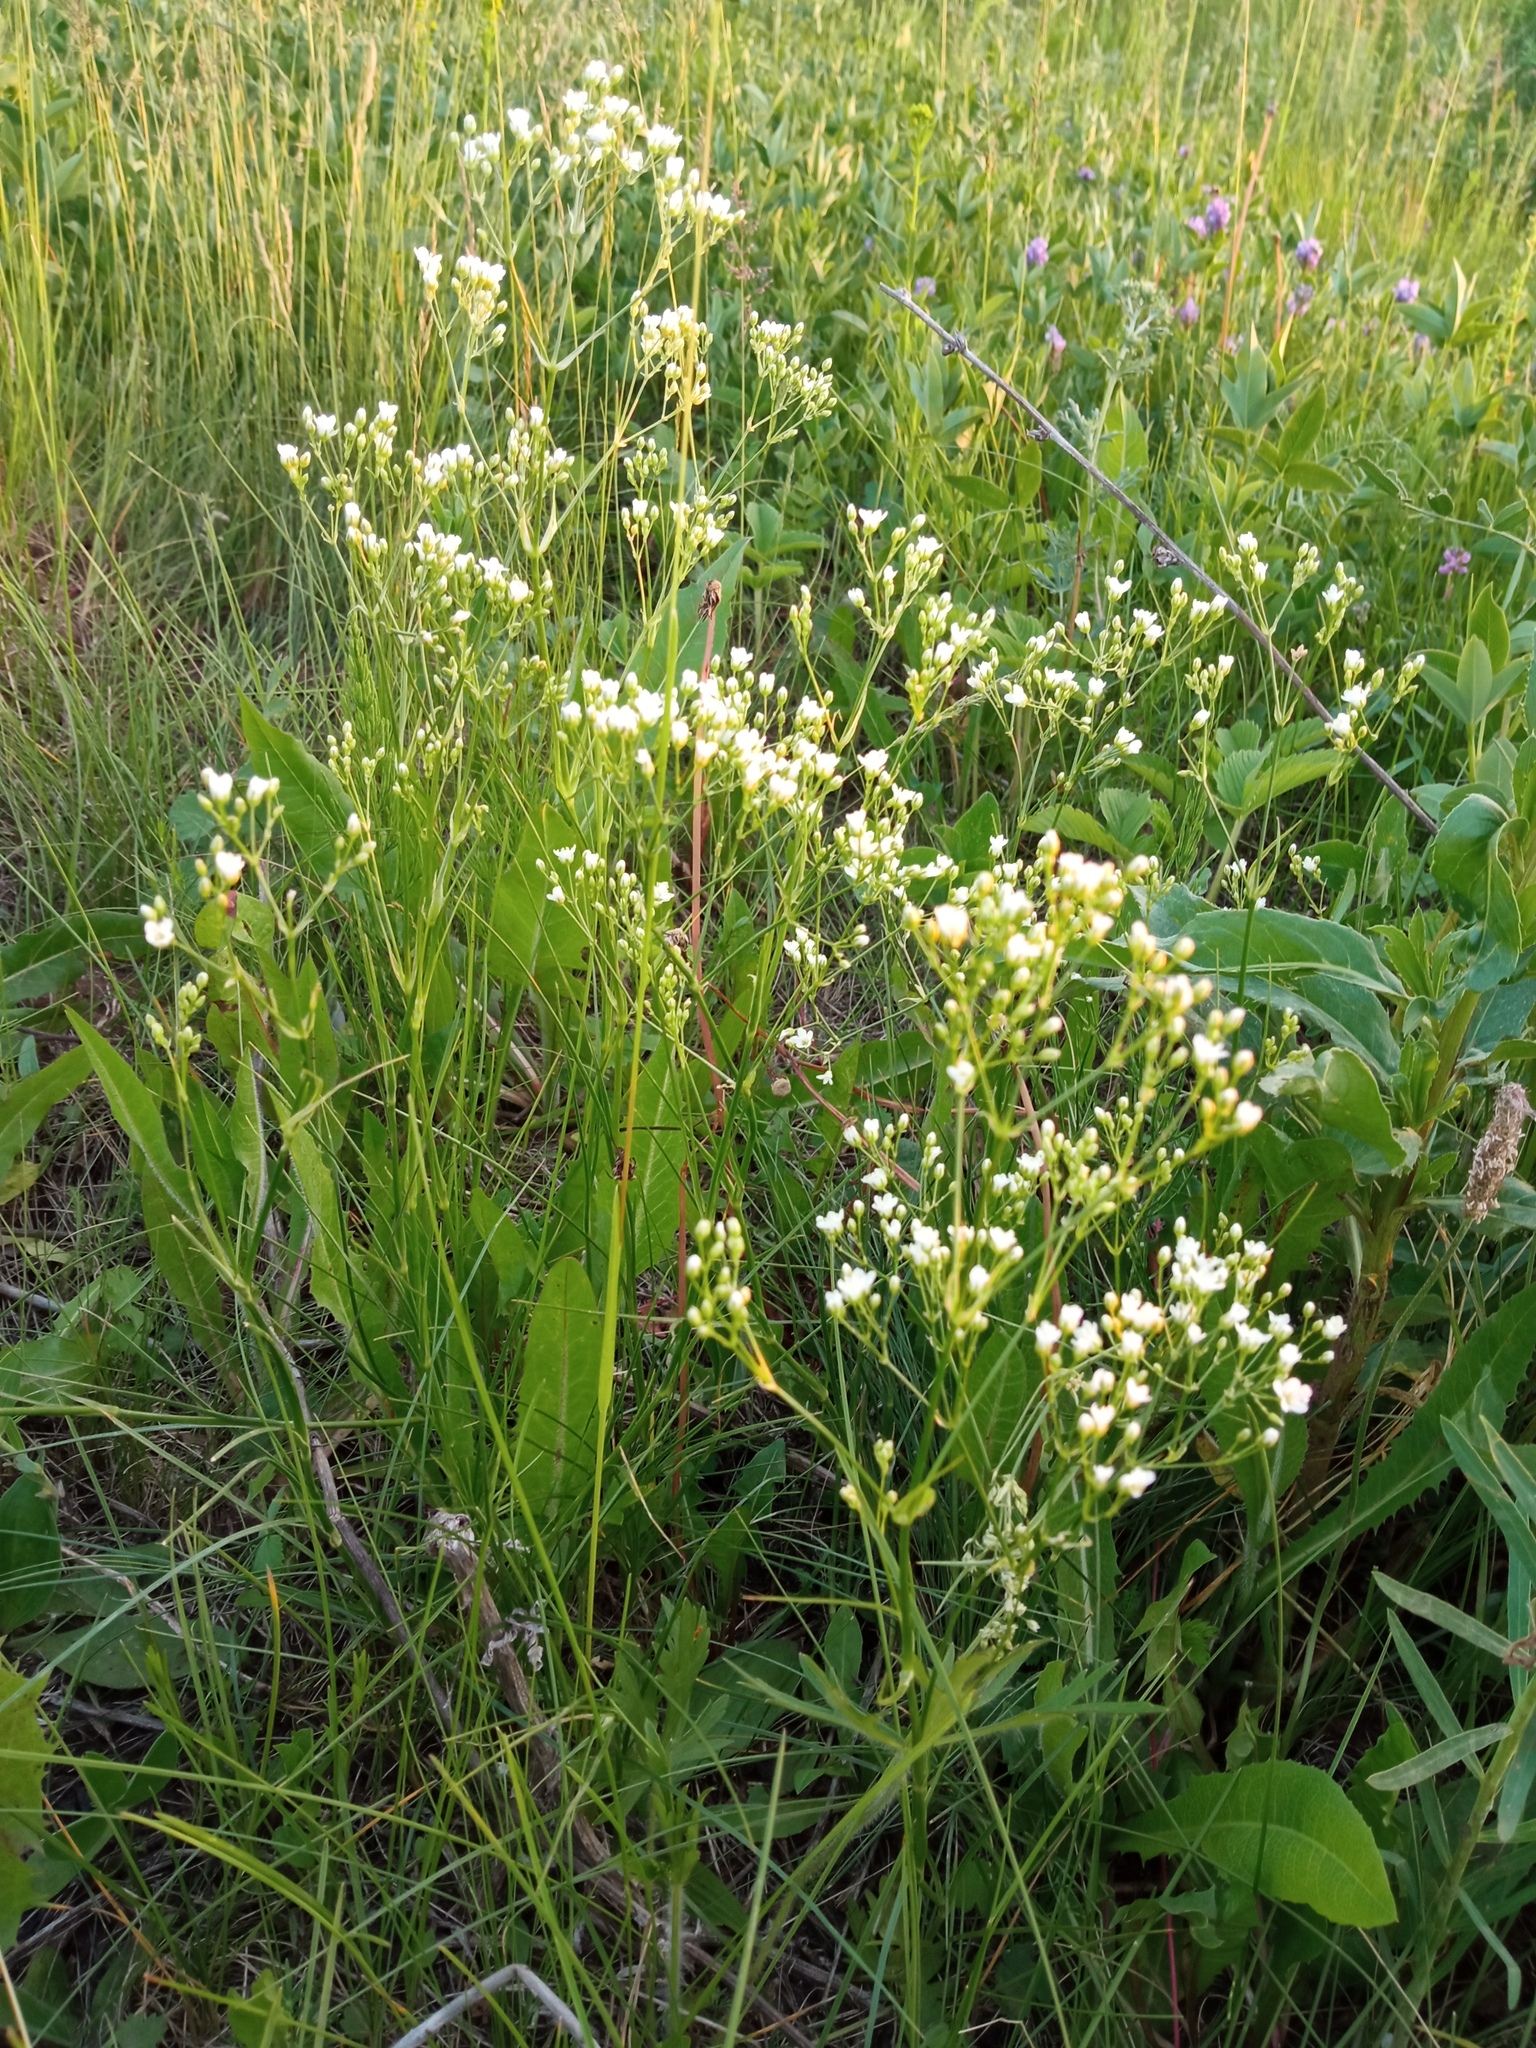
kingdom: Plantae
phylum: Tracheophyta
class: Magnoliopsida
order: Caryophyllales
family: Caryophyllaceae
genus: Eremogone
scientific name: Eremogone longifolia
